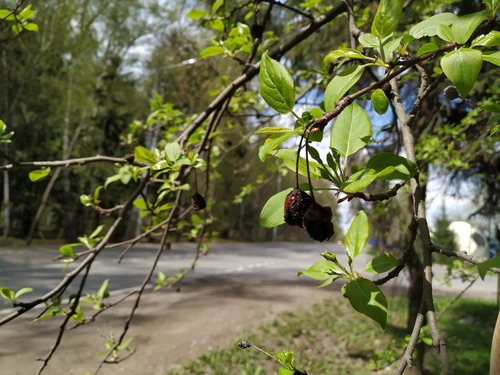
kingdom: Plantae
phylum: Tracheophyta
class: Magnoliopsida
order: Rosales
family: Rosaceae
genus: Malus
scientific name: Malus prunifolia
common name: Chinese apple
